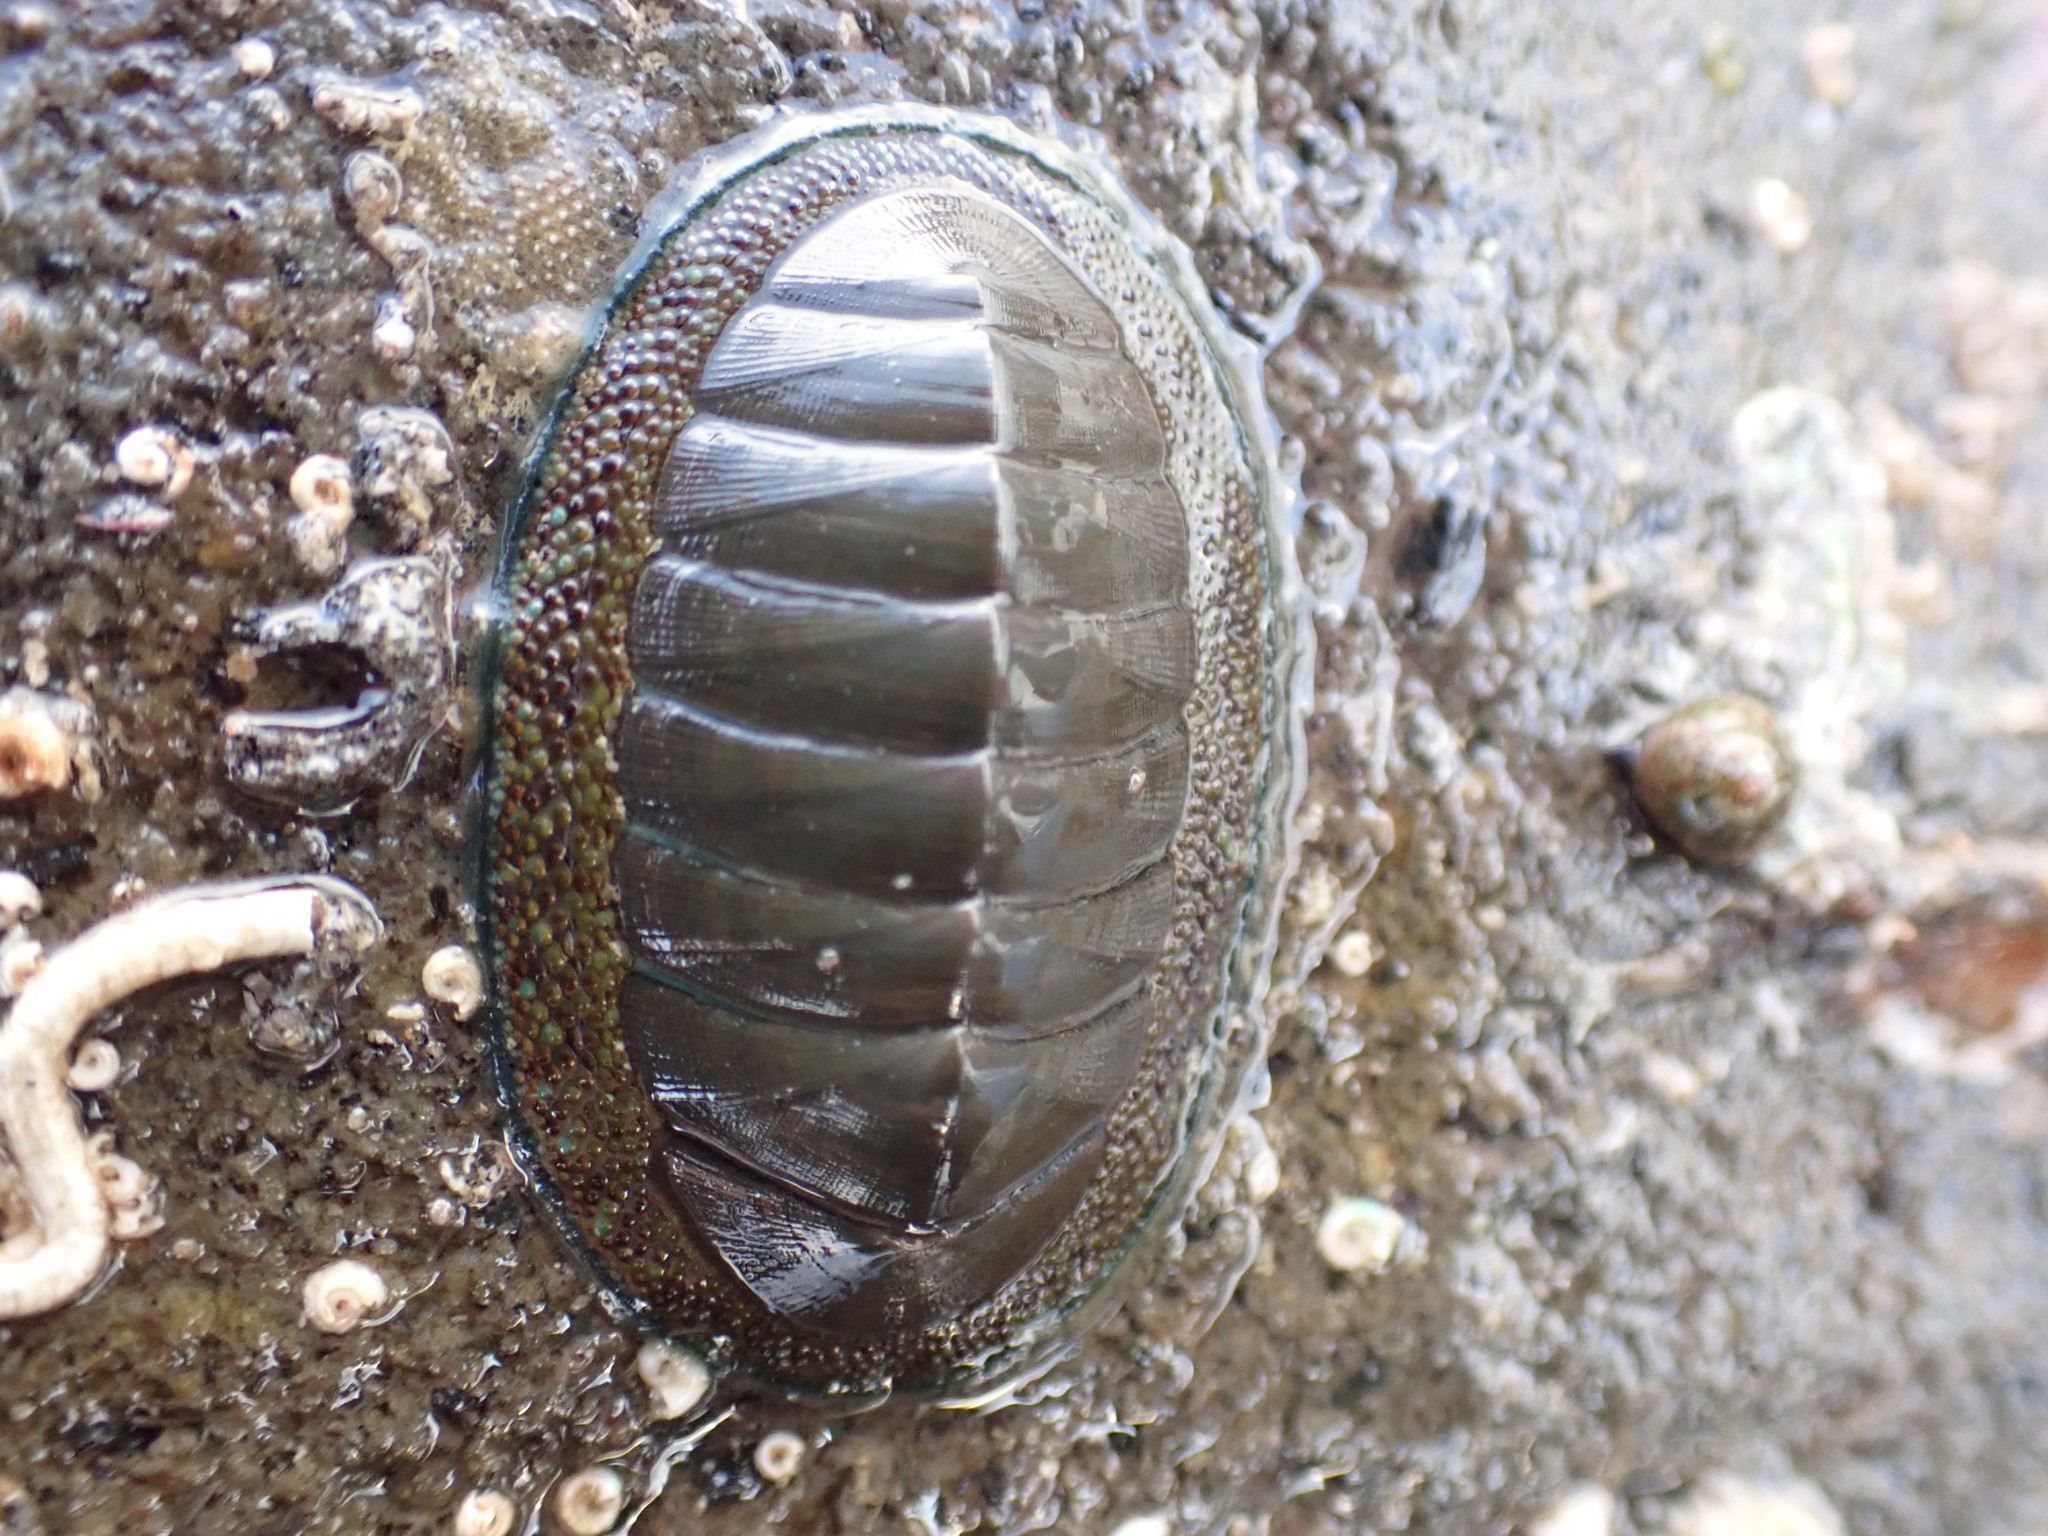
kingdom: Animalia
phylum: Mollusca
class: Polyplacophora
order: Chitonida
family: Chitonidae
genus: Chiton
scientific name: Chiton glaucus
